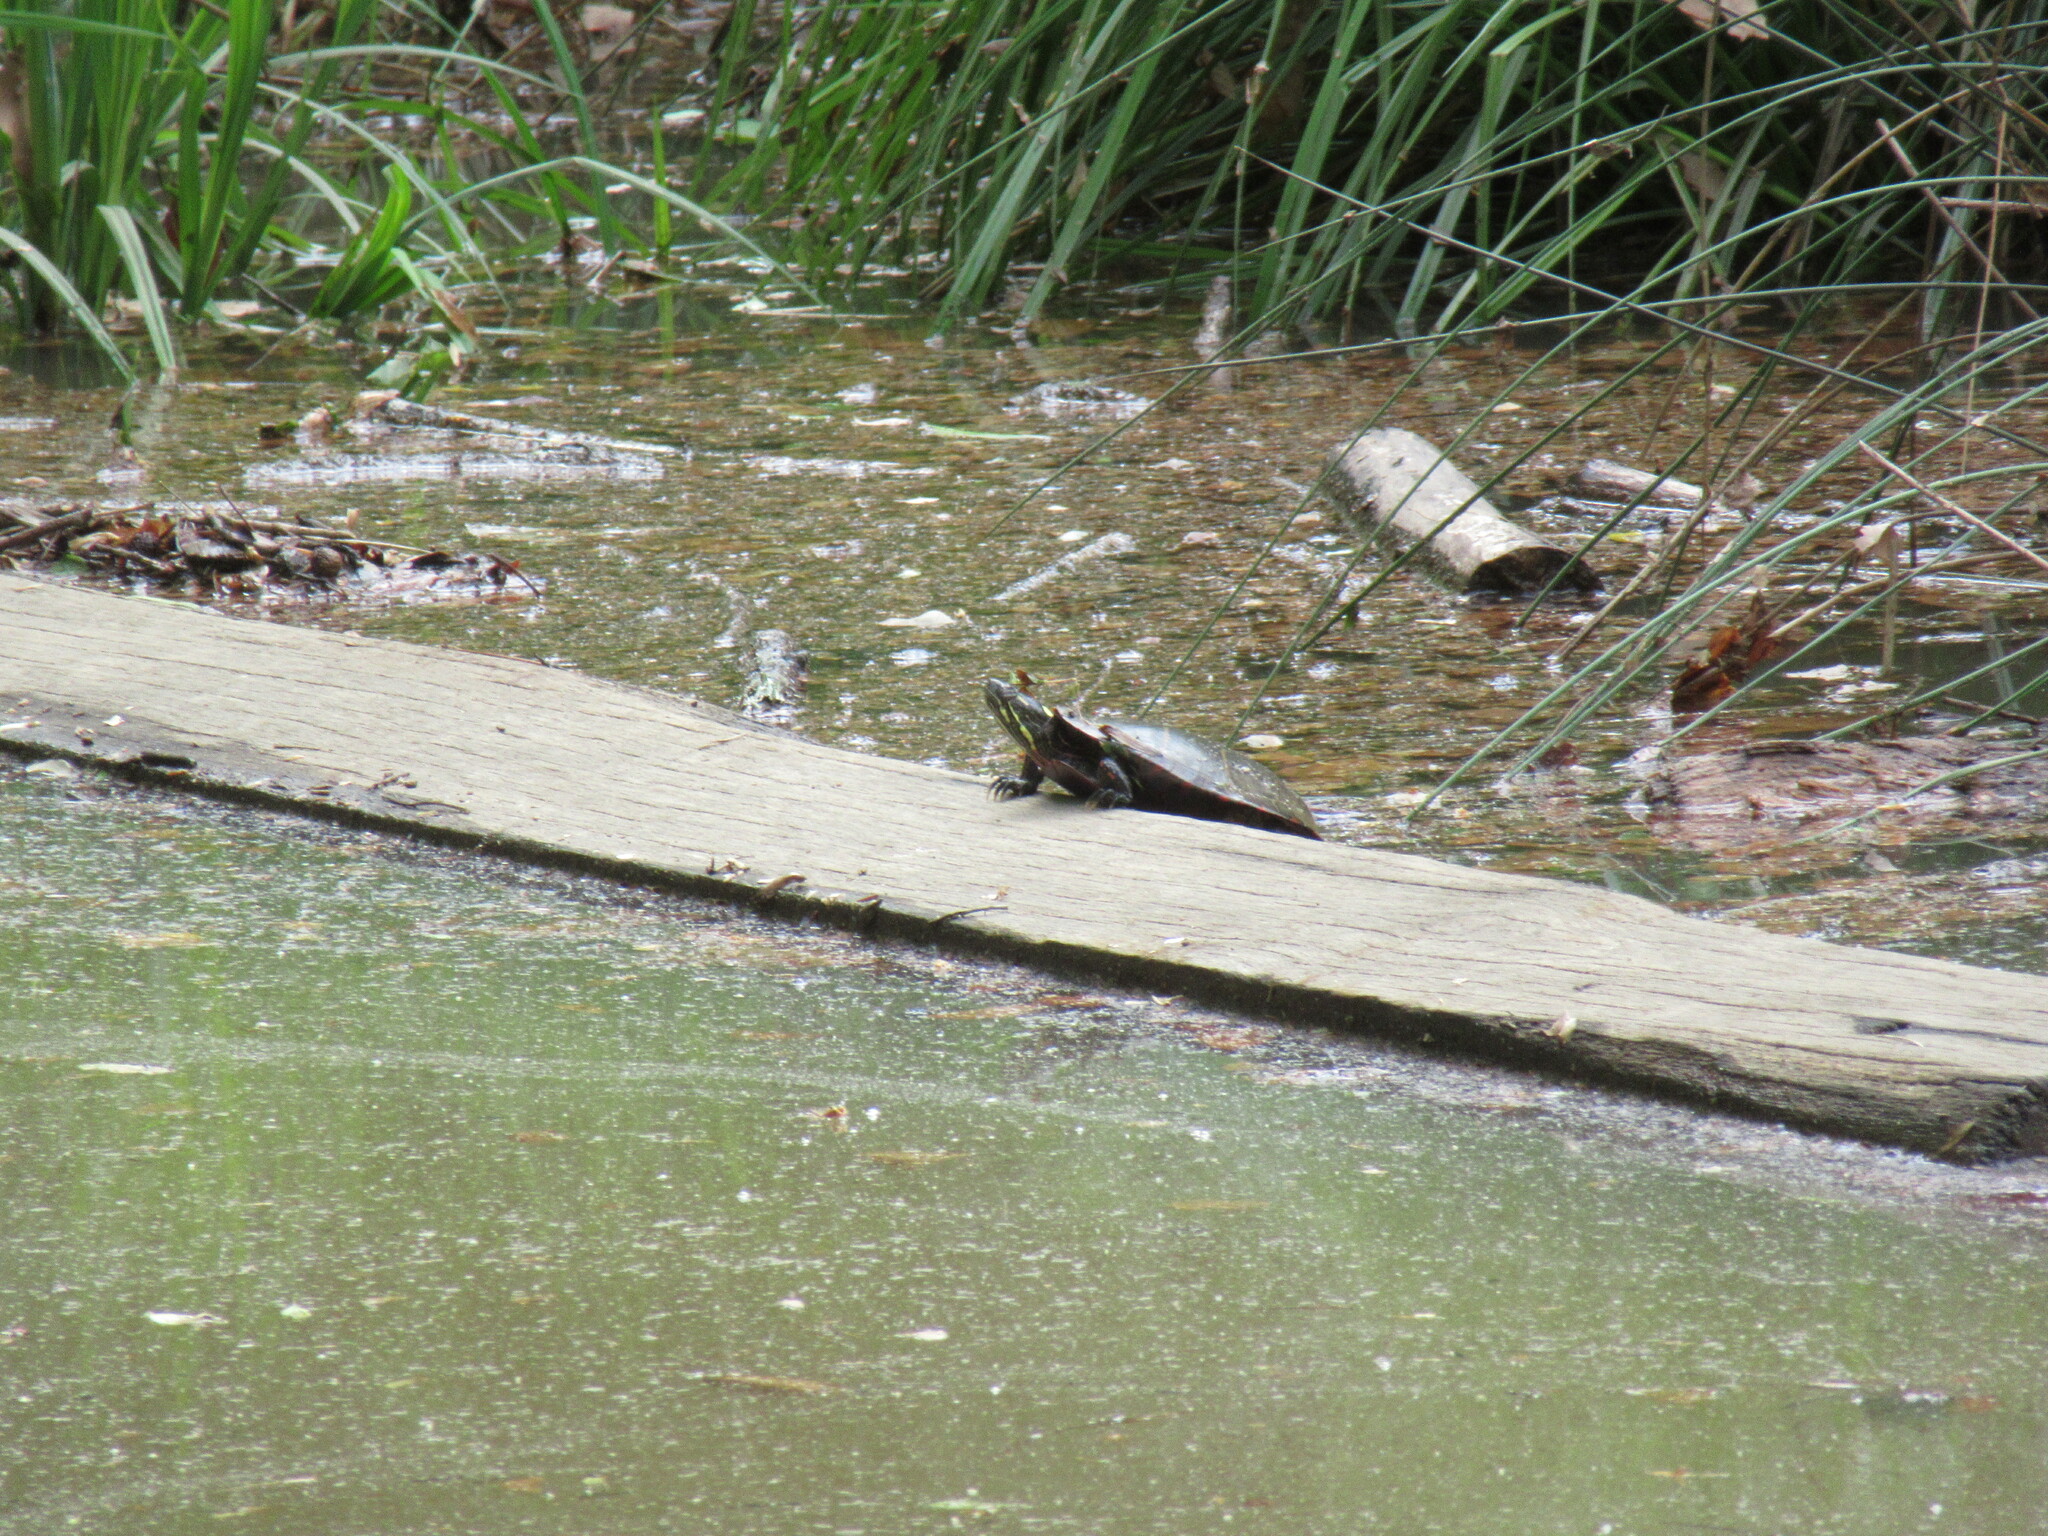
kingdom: Animalia
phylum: Chordata
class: Testudines
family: Emydidae
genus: Chrysemys
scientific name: Chrysemys picta
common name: Painted turtle
